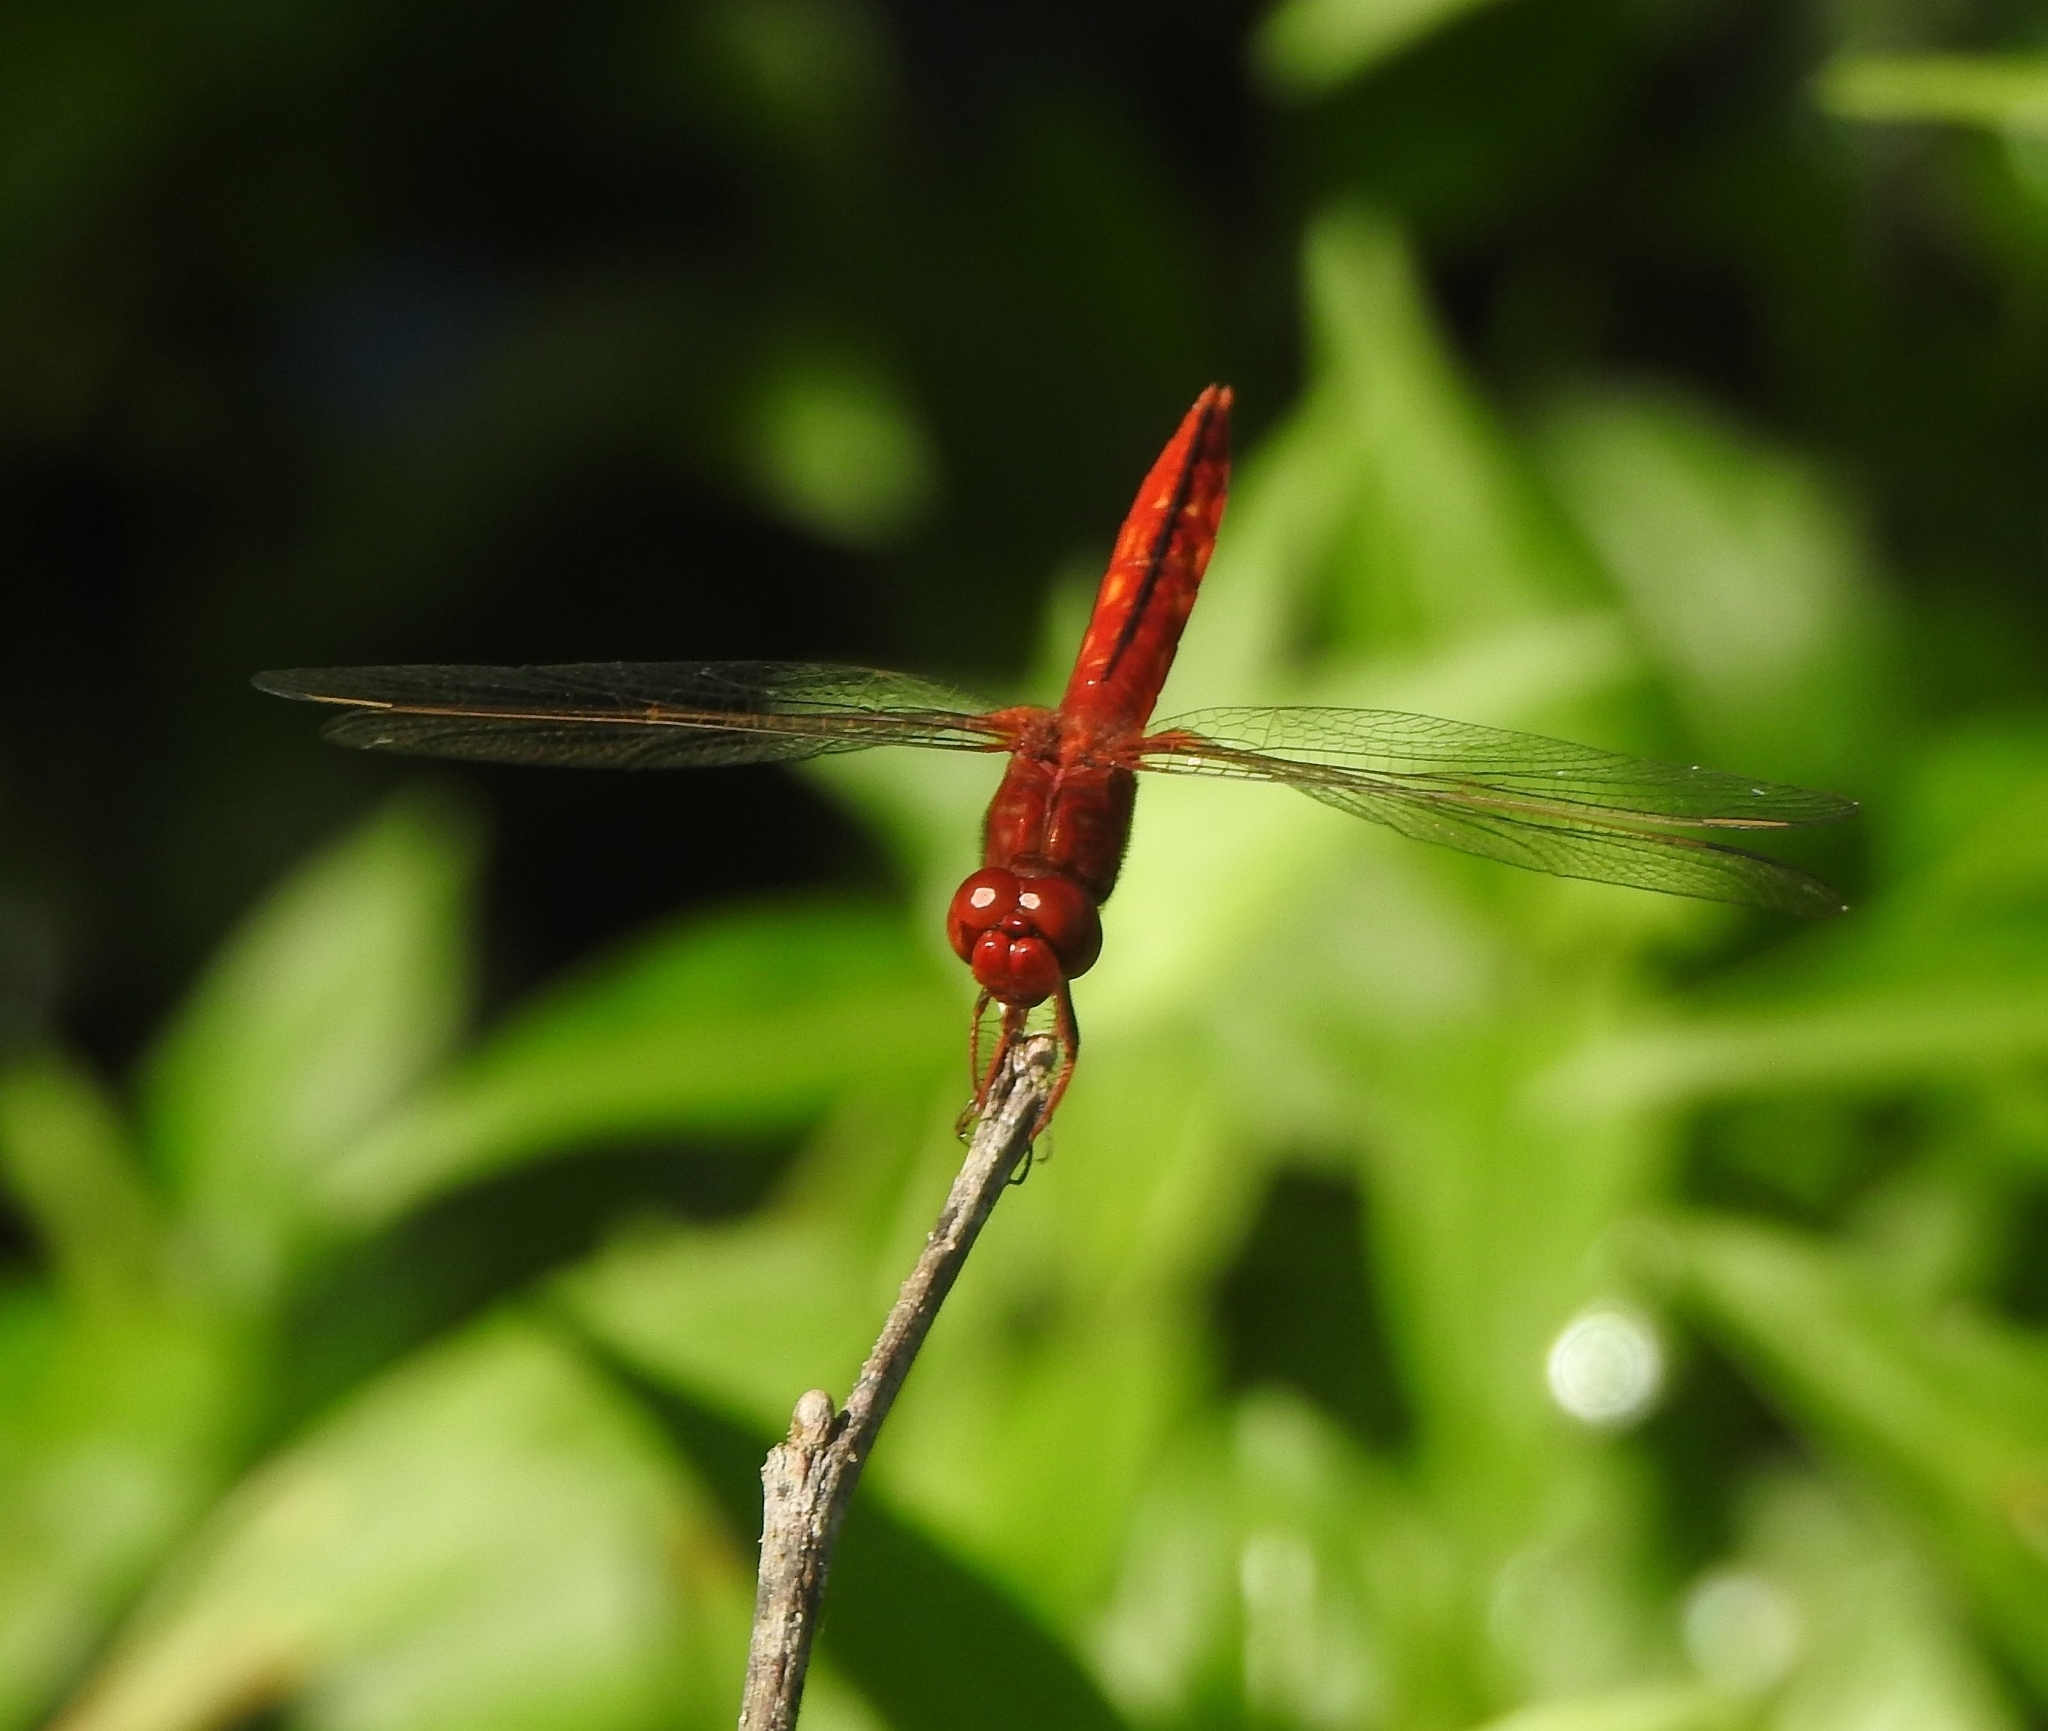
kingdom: Animalia
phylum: Arthropoda
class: Insecta
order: Odonata
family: Libellulidae
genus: Crocothemis
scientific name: Crocothemis servilia
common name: Scarlet skimmer
